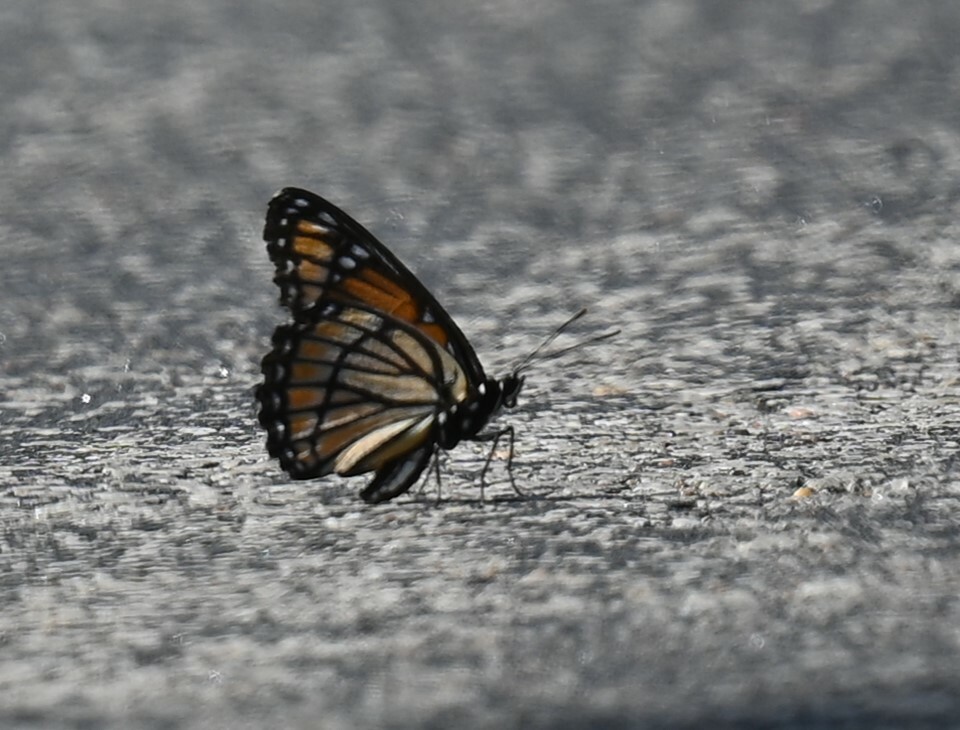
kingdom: Animalia
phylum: Arthropoda
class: Insecta
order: Lepidoptera
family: Nymphalidae
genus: Limenitis
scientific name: Limenitis archippus
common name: Viceroy
